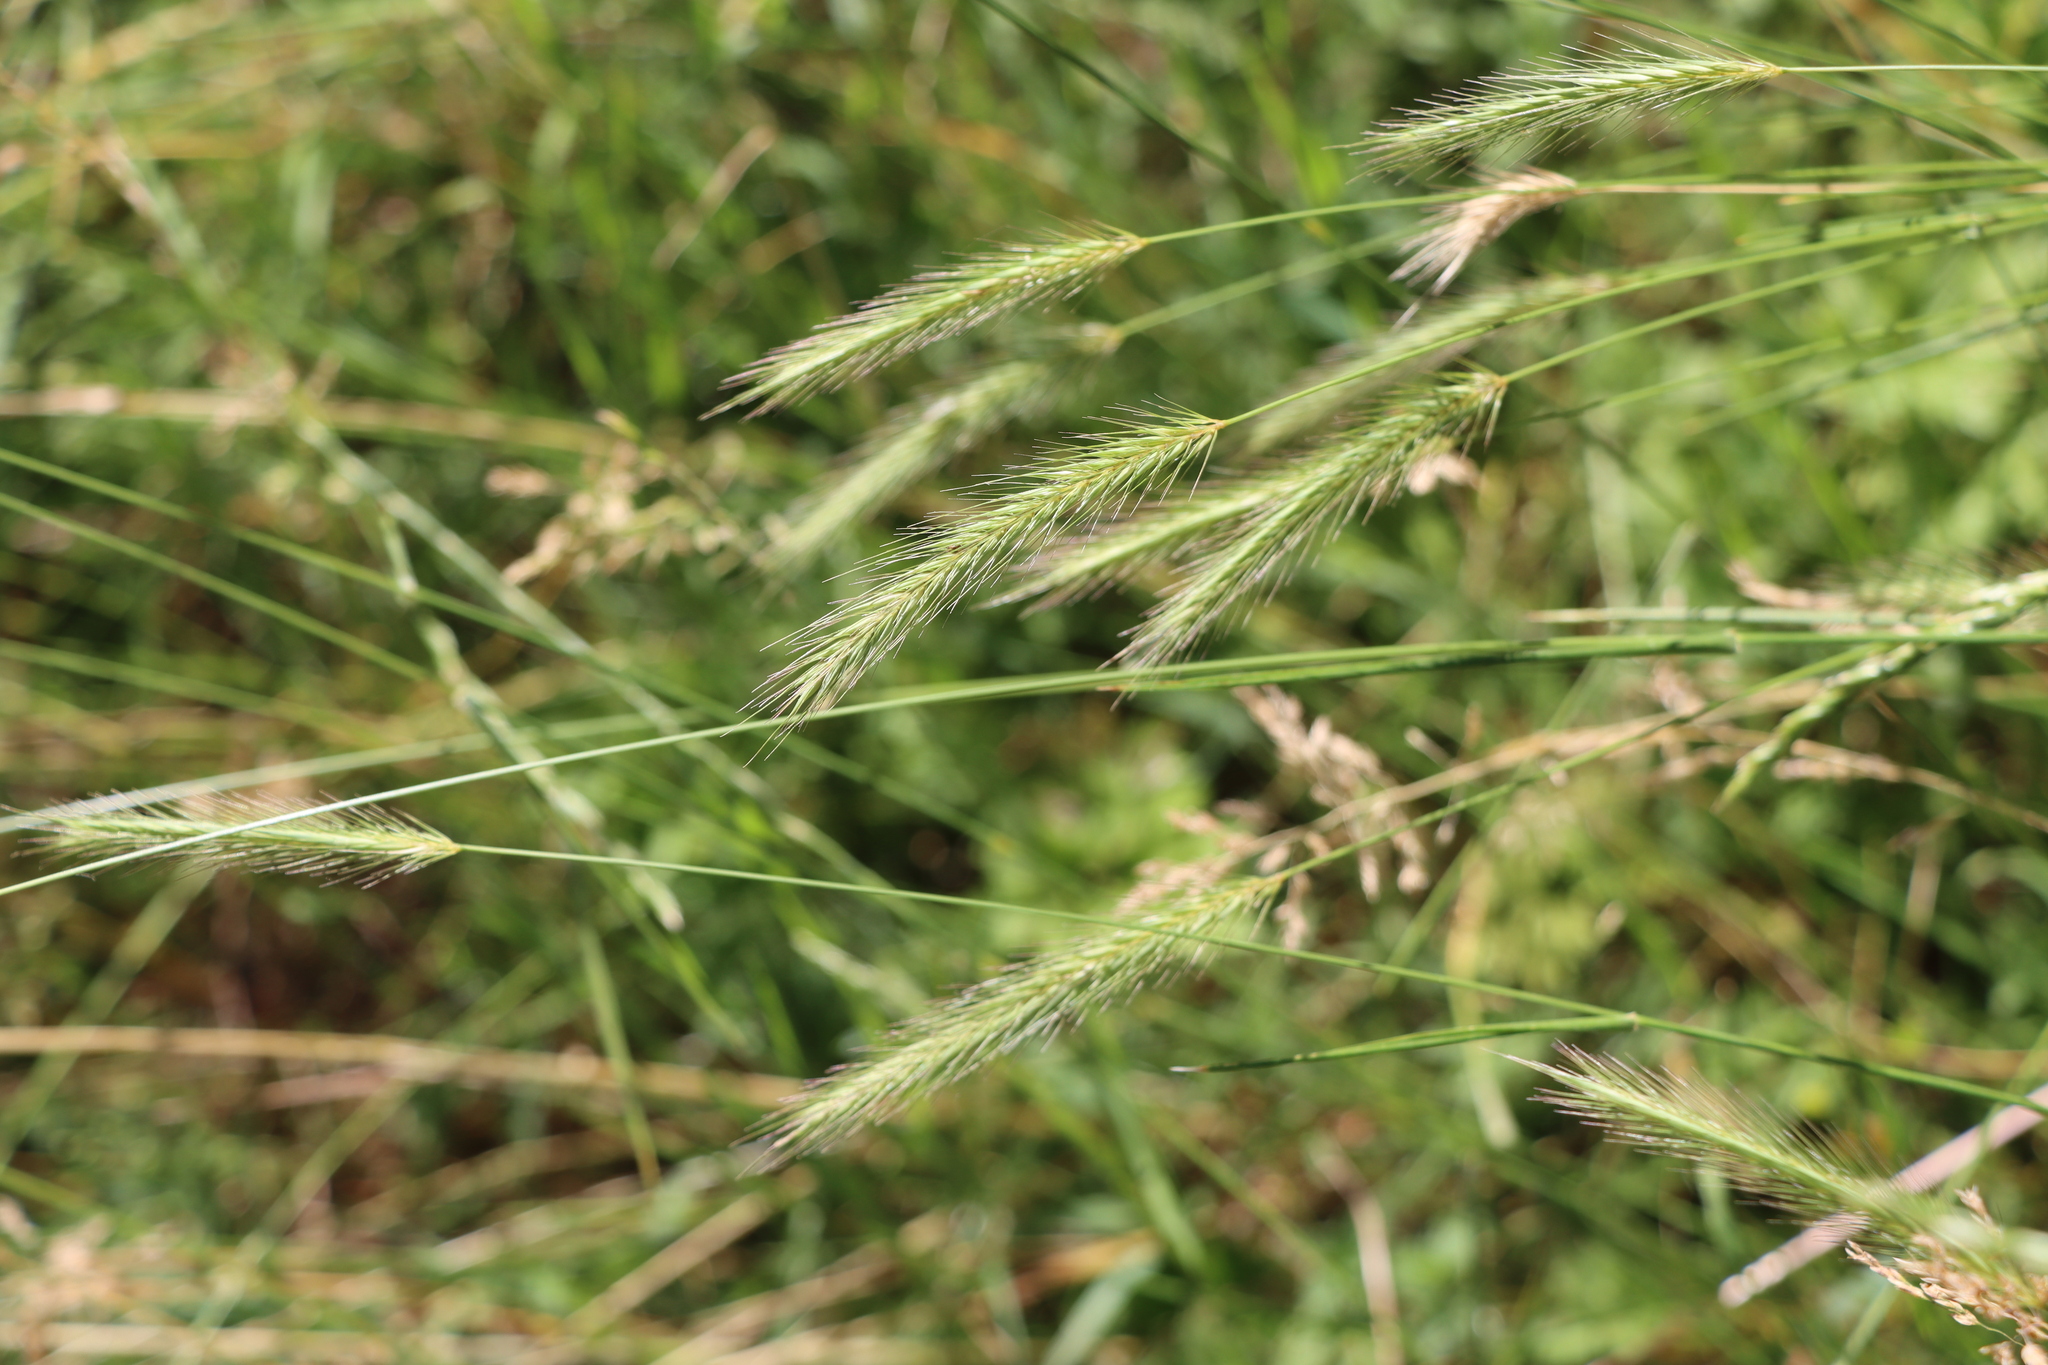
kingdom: Plantae
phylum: Tracheophyta
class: Liliopsida
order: Poales
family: Poaceae
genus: Hordeum
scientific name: Hordeum secalinum
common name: Meadow barley
